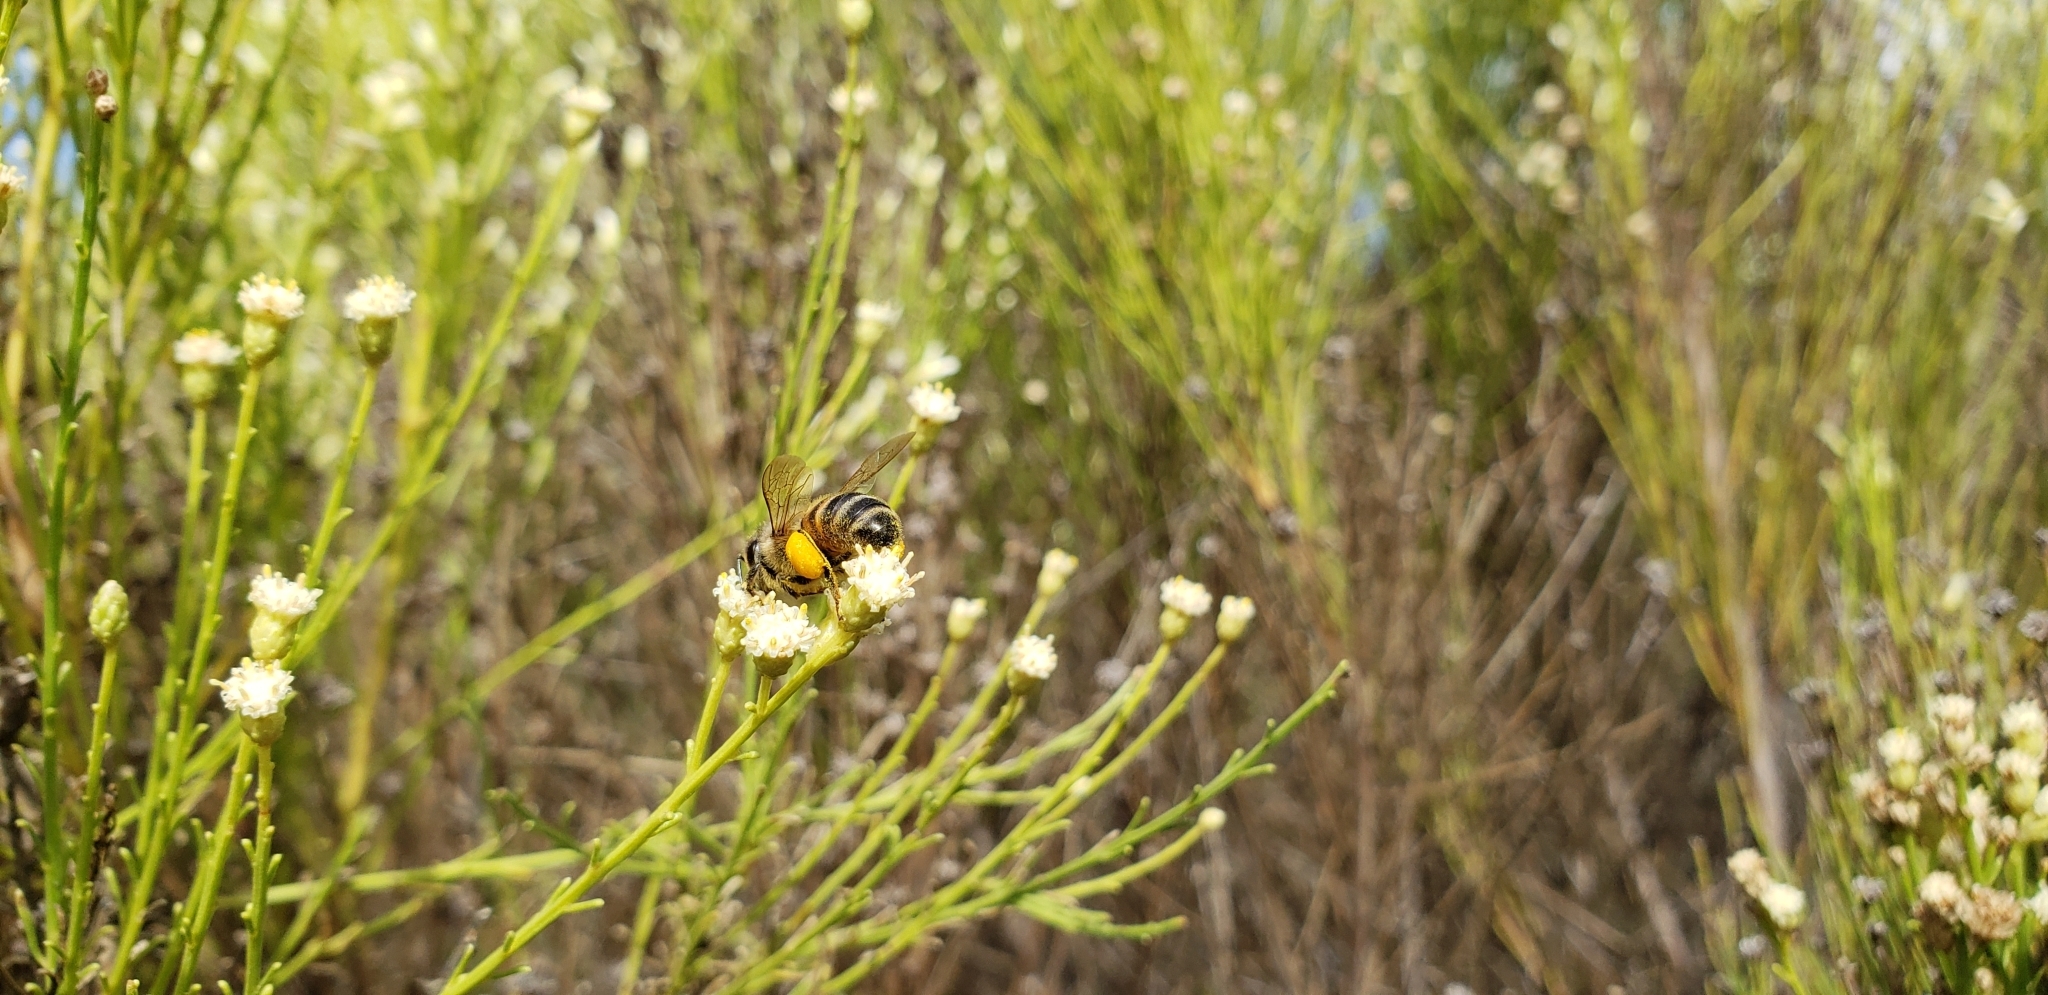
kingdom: Animalia
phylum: Arthropoda
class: Insecta
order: Hymenoptera
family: Apidae
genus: Apis
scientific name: Apis mellifera
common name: Honey bee
